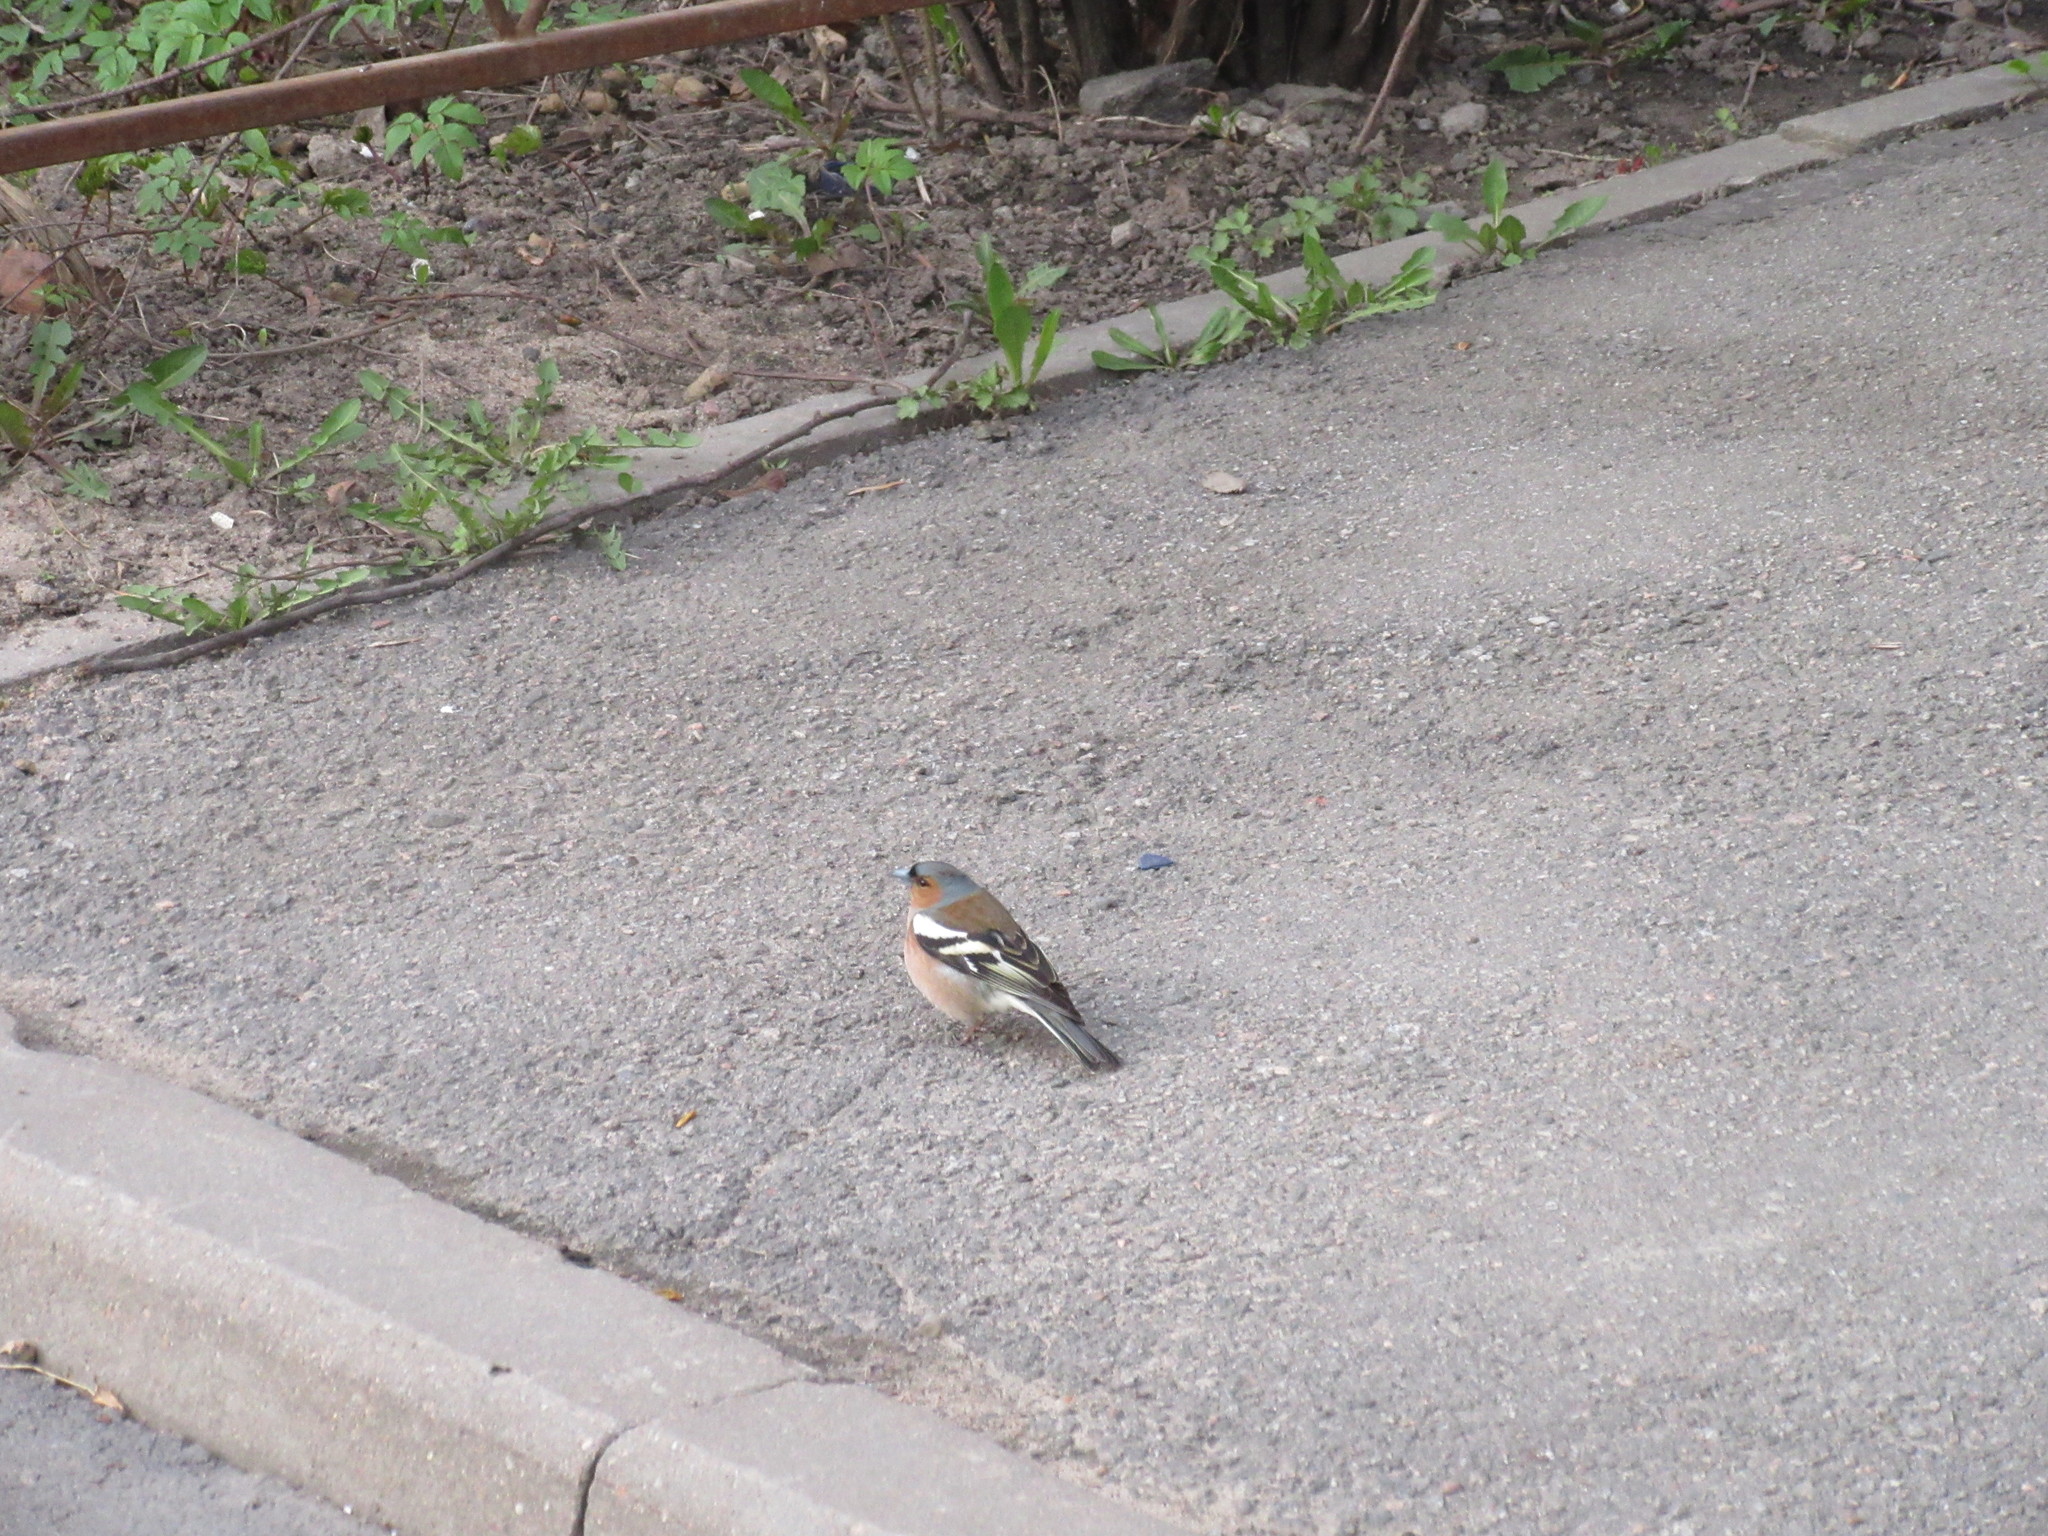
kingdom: Animalia
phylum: Chordata
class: Aves
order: Passeriformes
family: Fringillidae
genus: Fringilla
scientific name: Fringilla coelebs
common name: Common chaffinch
